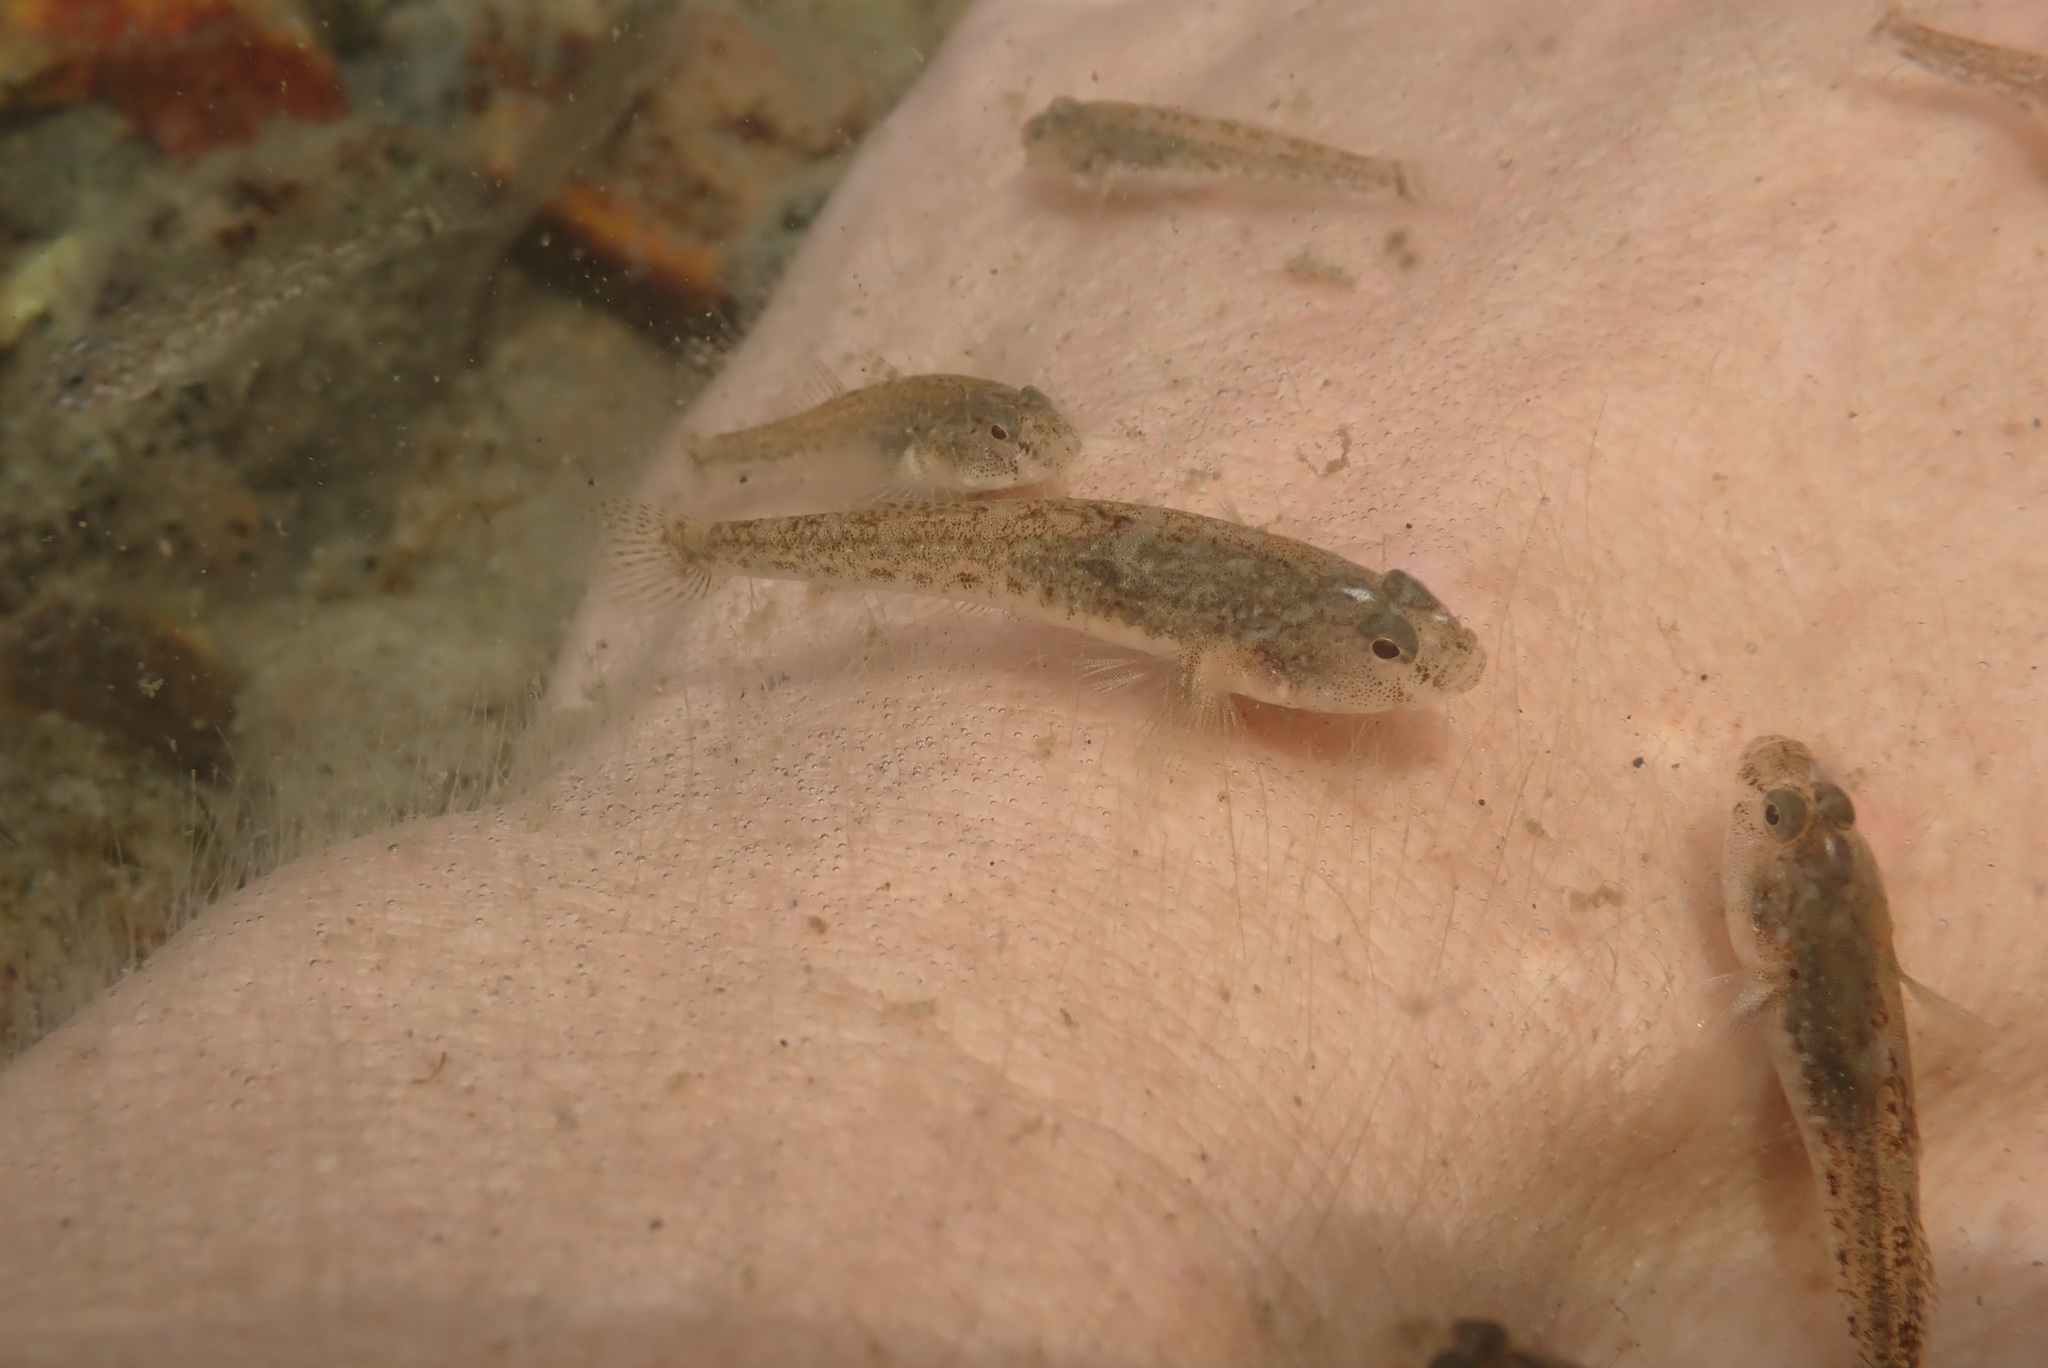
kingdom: Animalia
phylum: Chordata
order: Perciformes
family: Gobiidae
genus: Pomatoschistus
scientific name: Pomatoschistus microps
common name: Common goby
